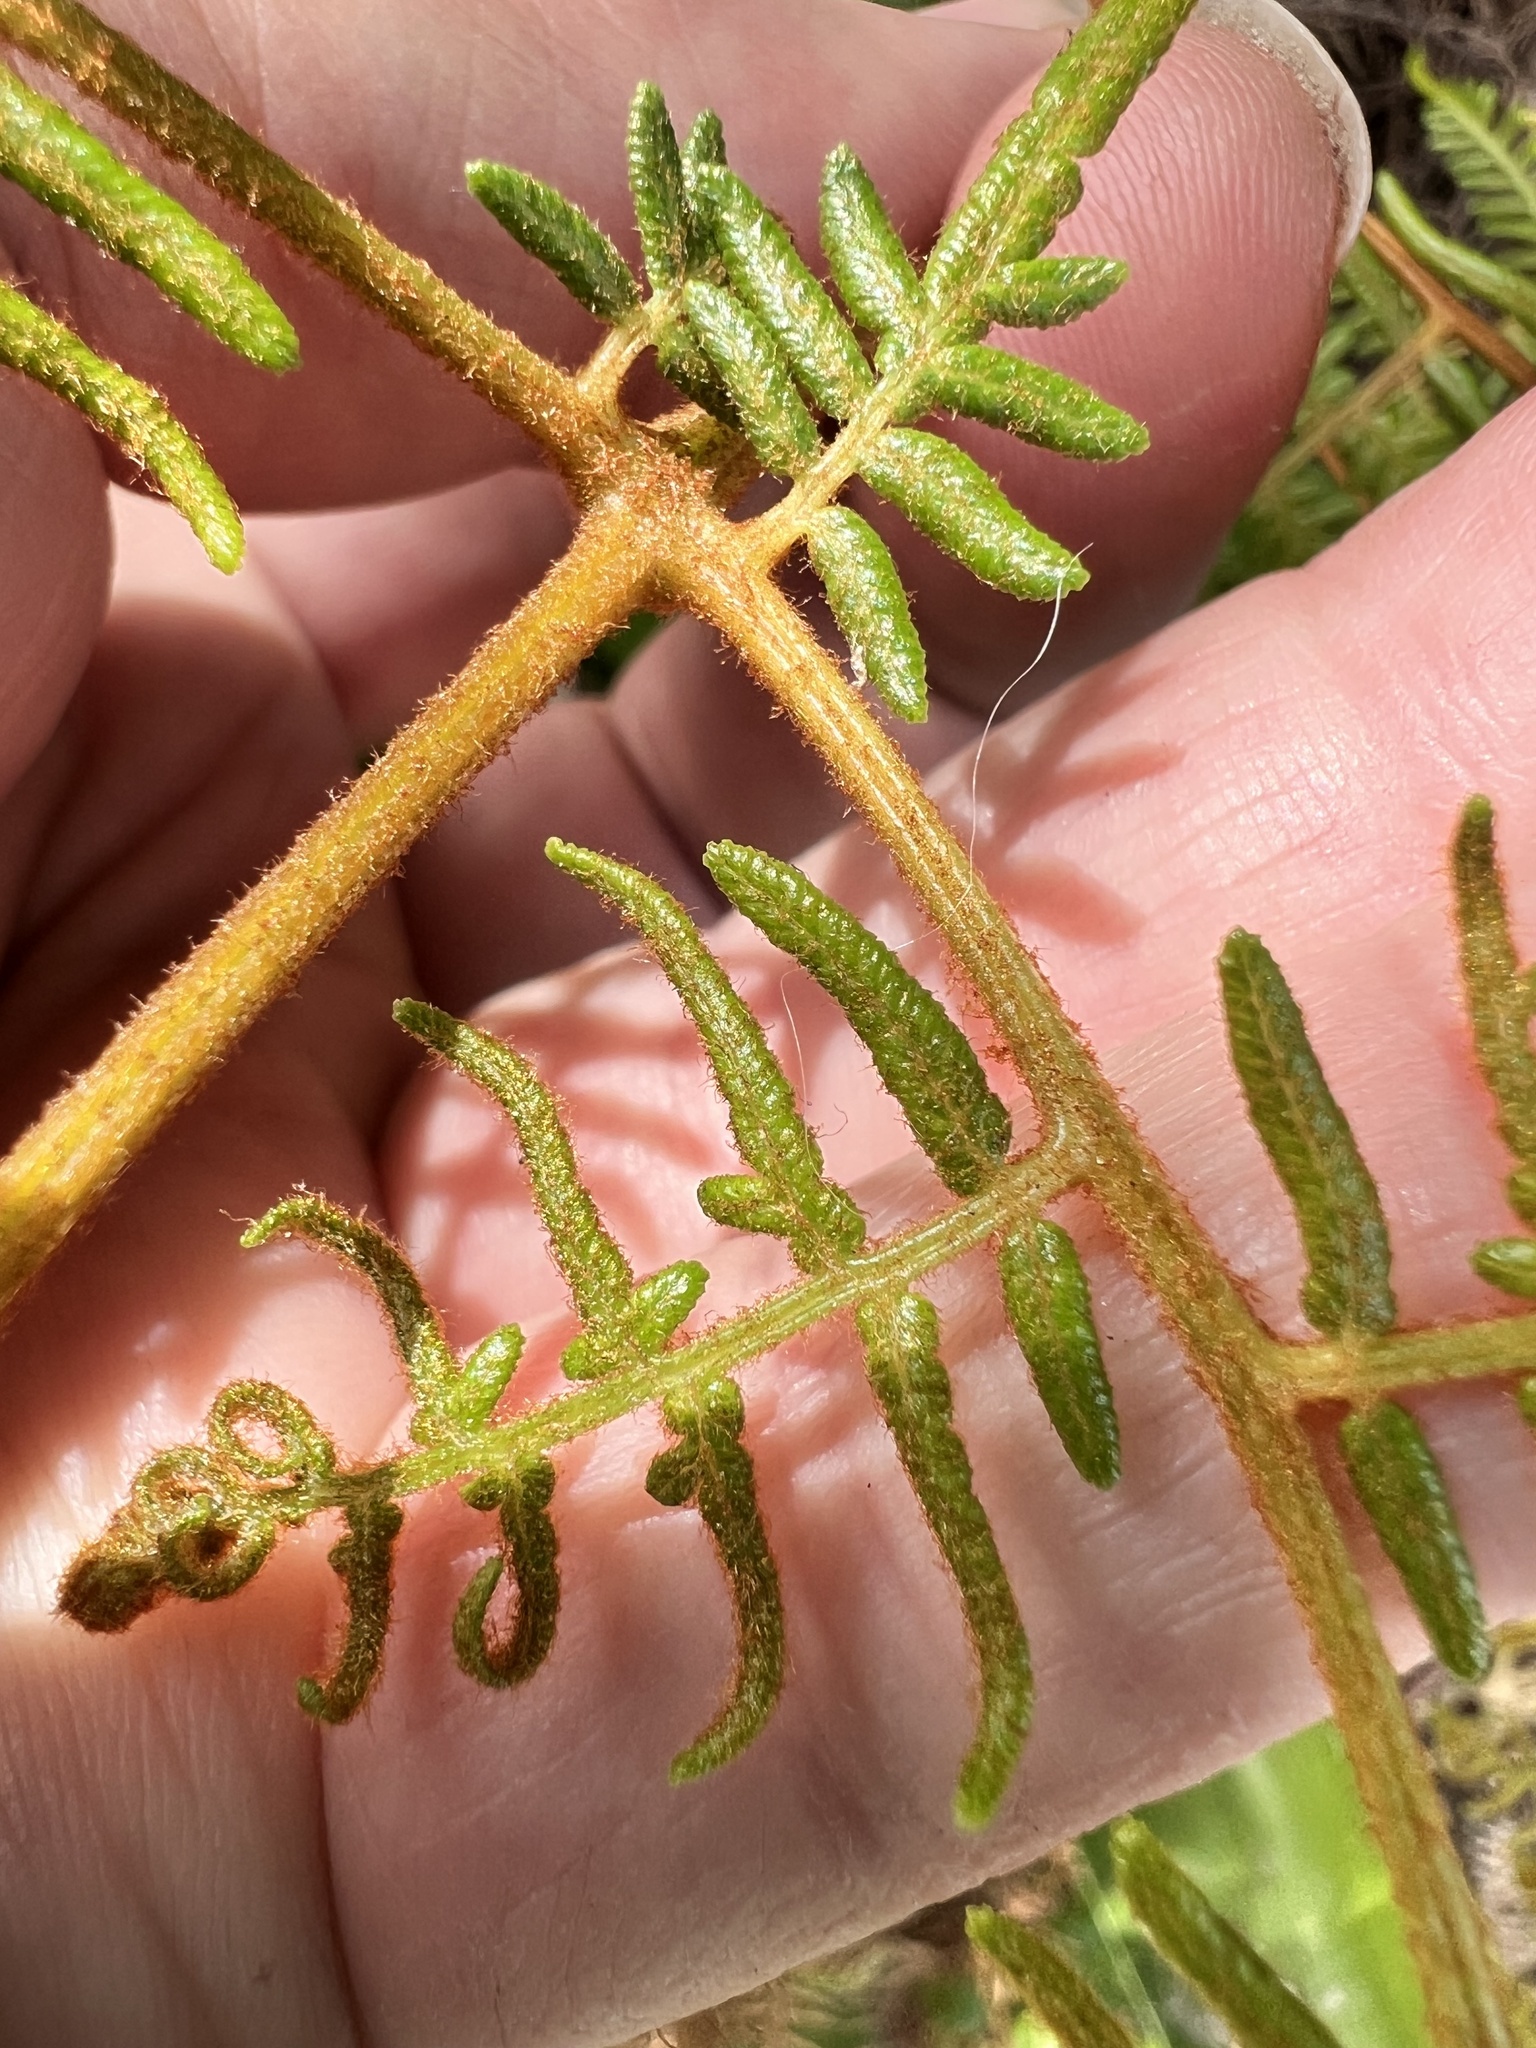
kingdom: Plantae
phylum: Tracheophyta
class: Polypodiopsida
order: Polypodiales
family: Dennstaedtiaceae
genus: Pteridium
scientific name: Pteridium esculentum
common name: Bracken fern
